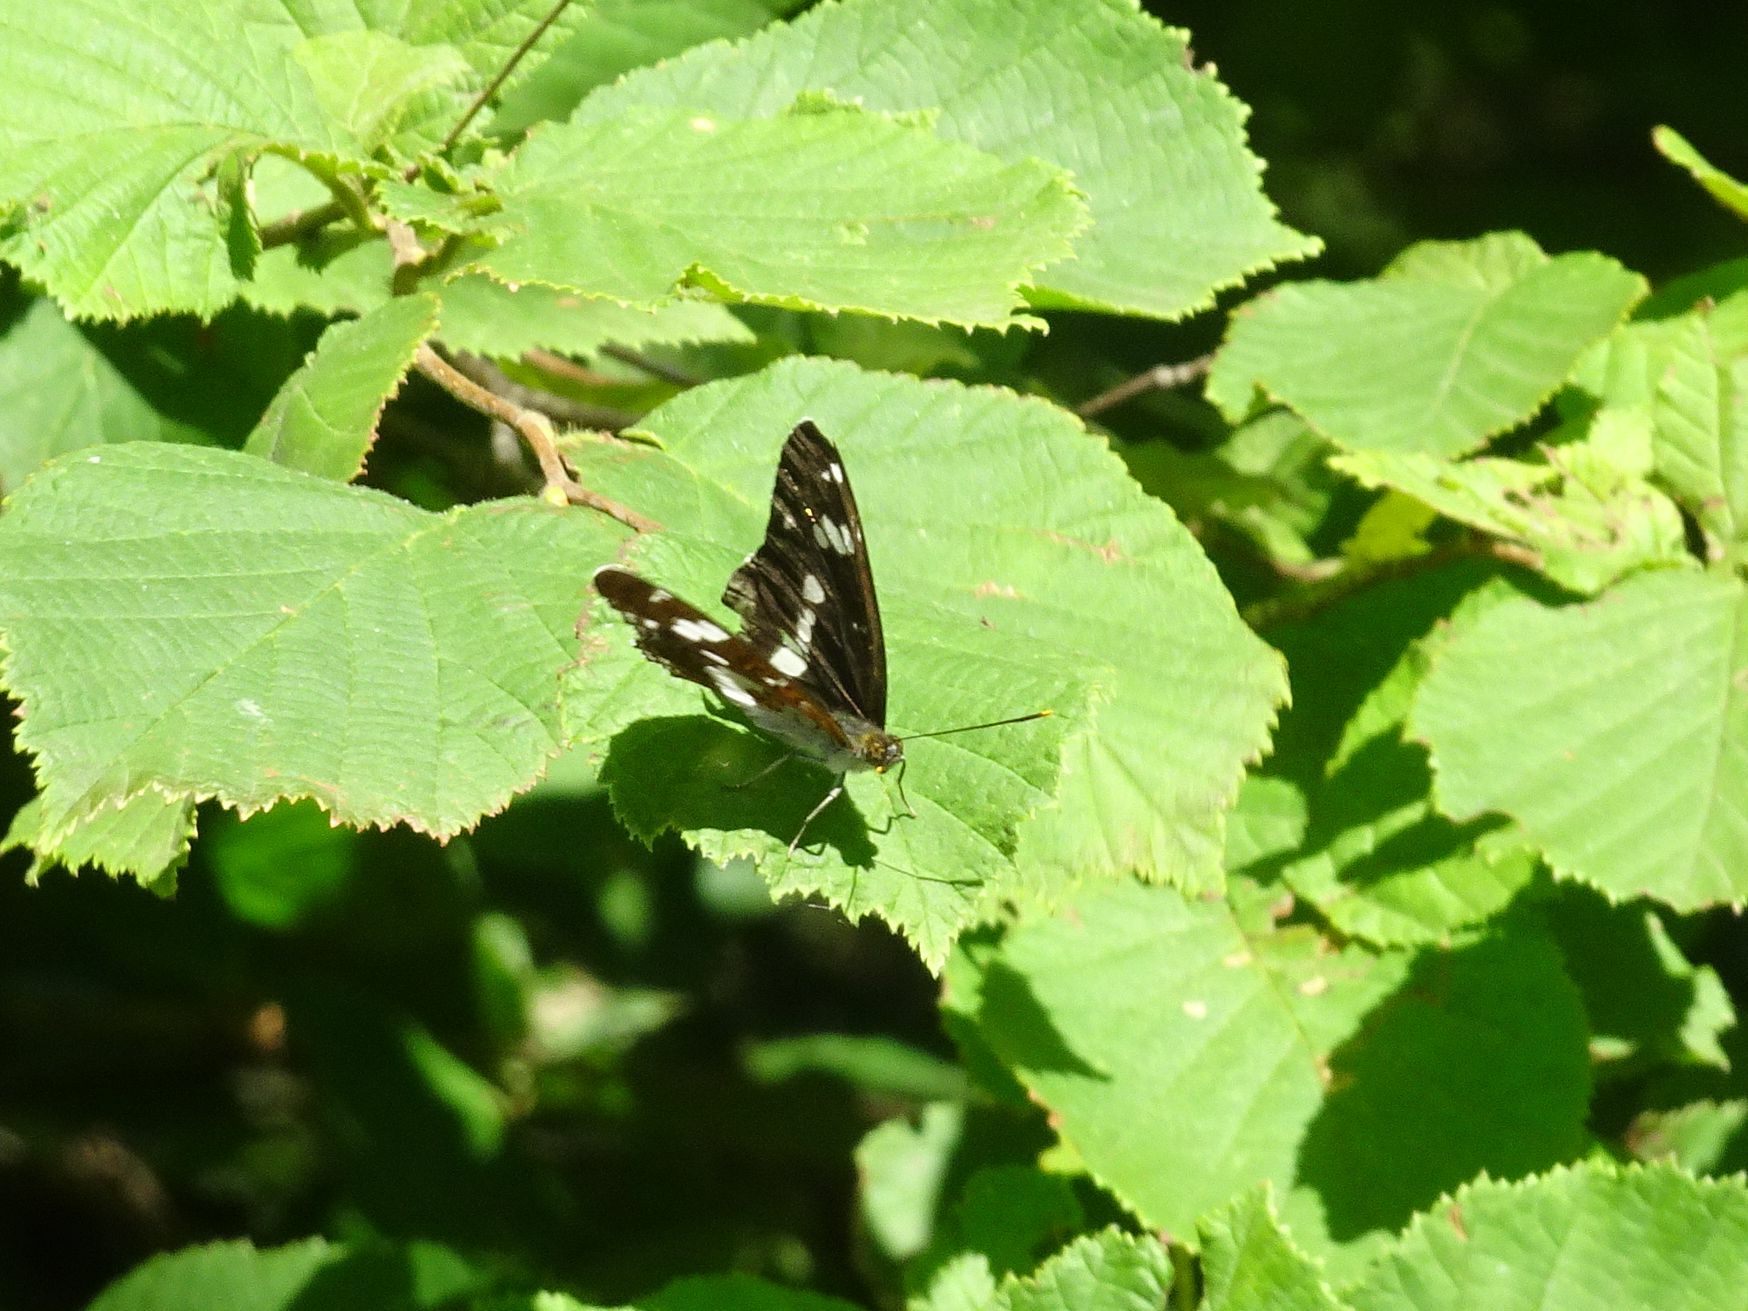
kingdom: Animalia
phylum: Arthropoda
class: Insecta
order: Lepidoptera
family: Nymphalidae
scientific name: Nymphalidae
